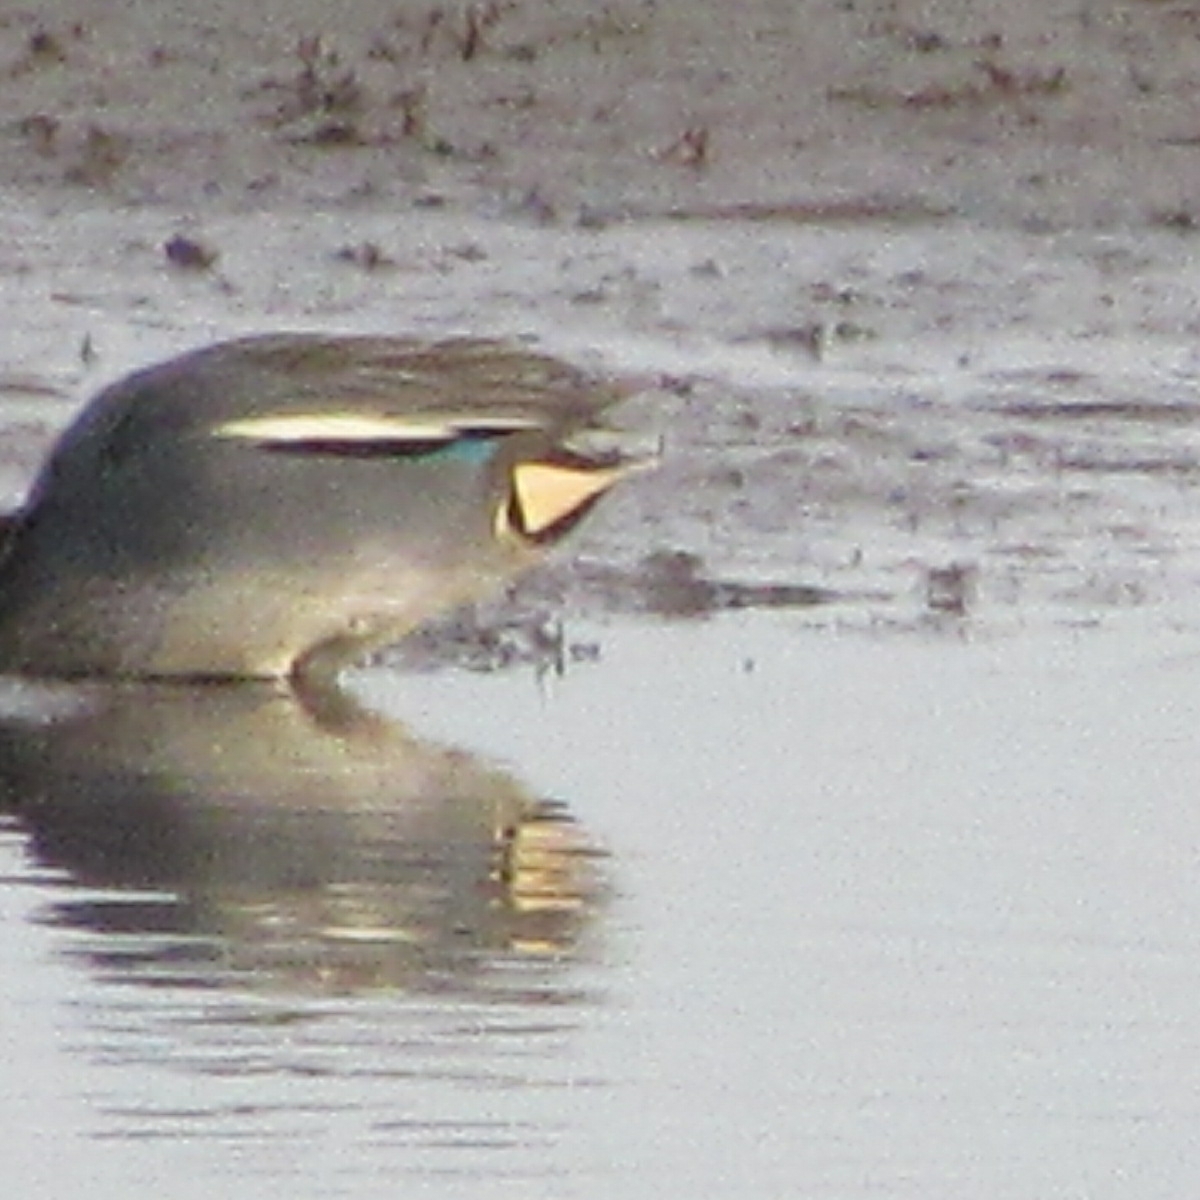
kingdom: Animalia
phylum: Chordata
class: Aves
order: Anseriformes
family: Anatidae
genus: Anas
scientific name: Anas crecca
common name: Eurasian teal
